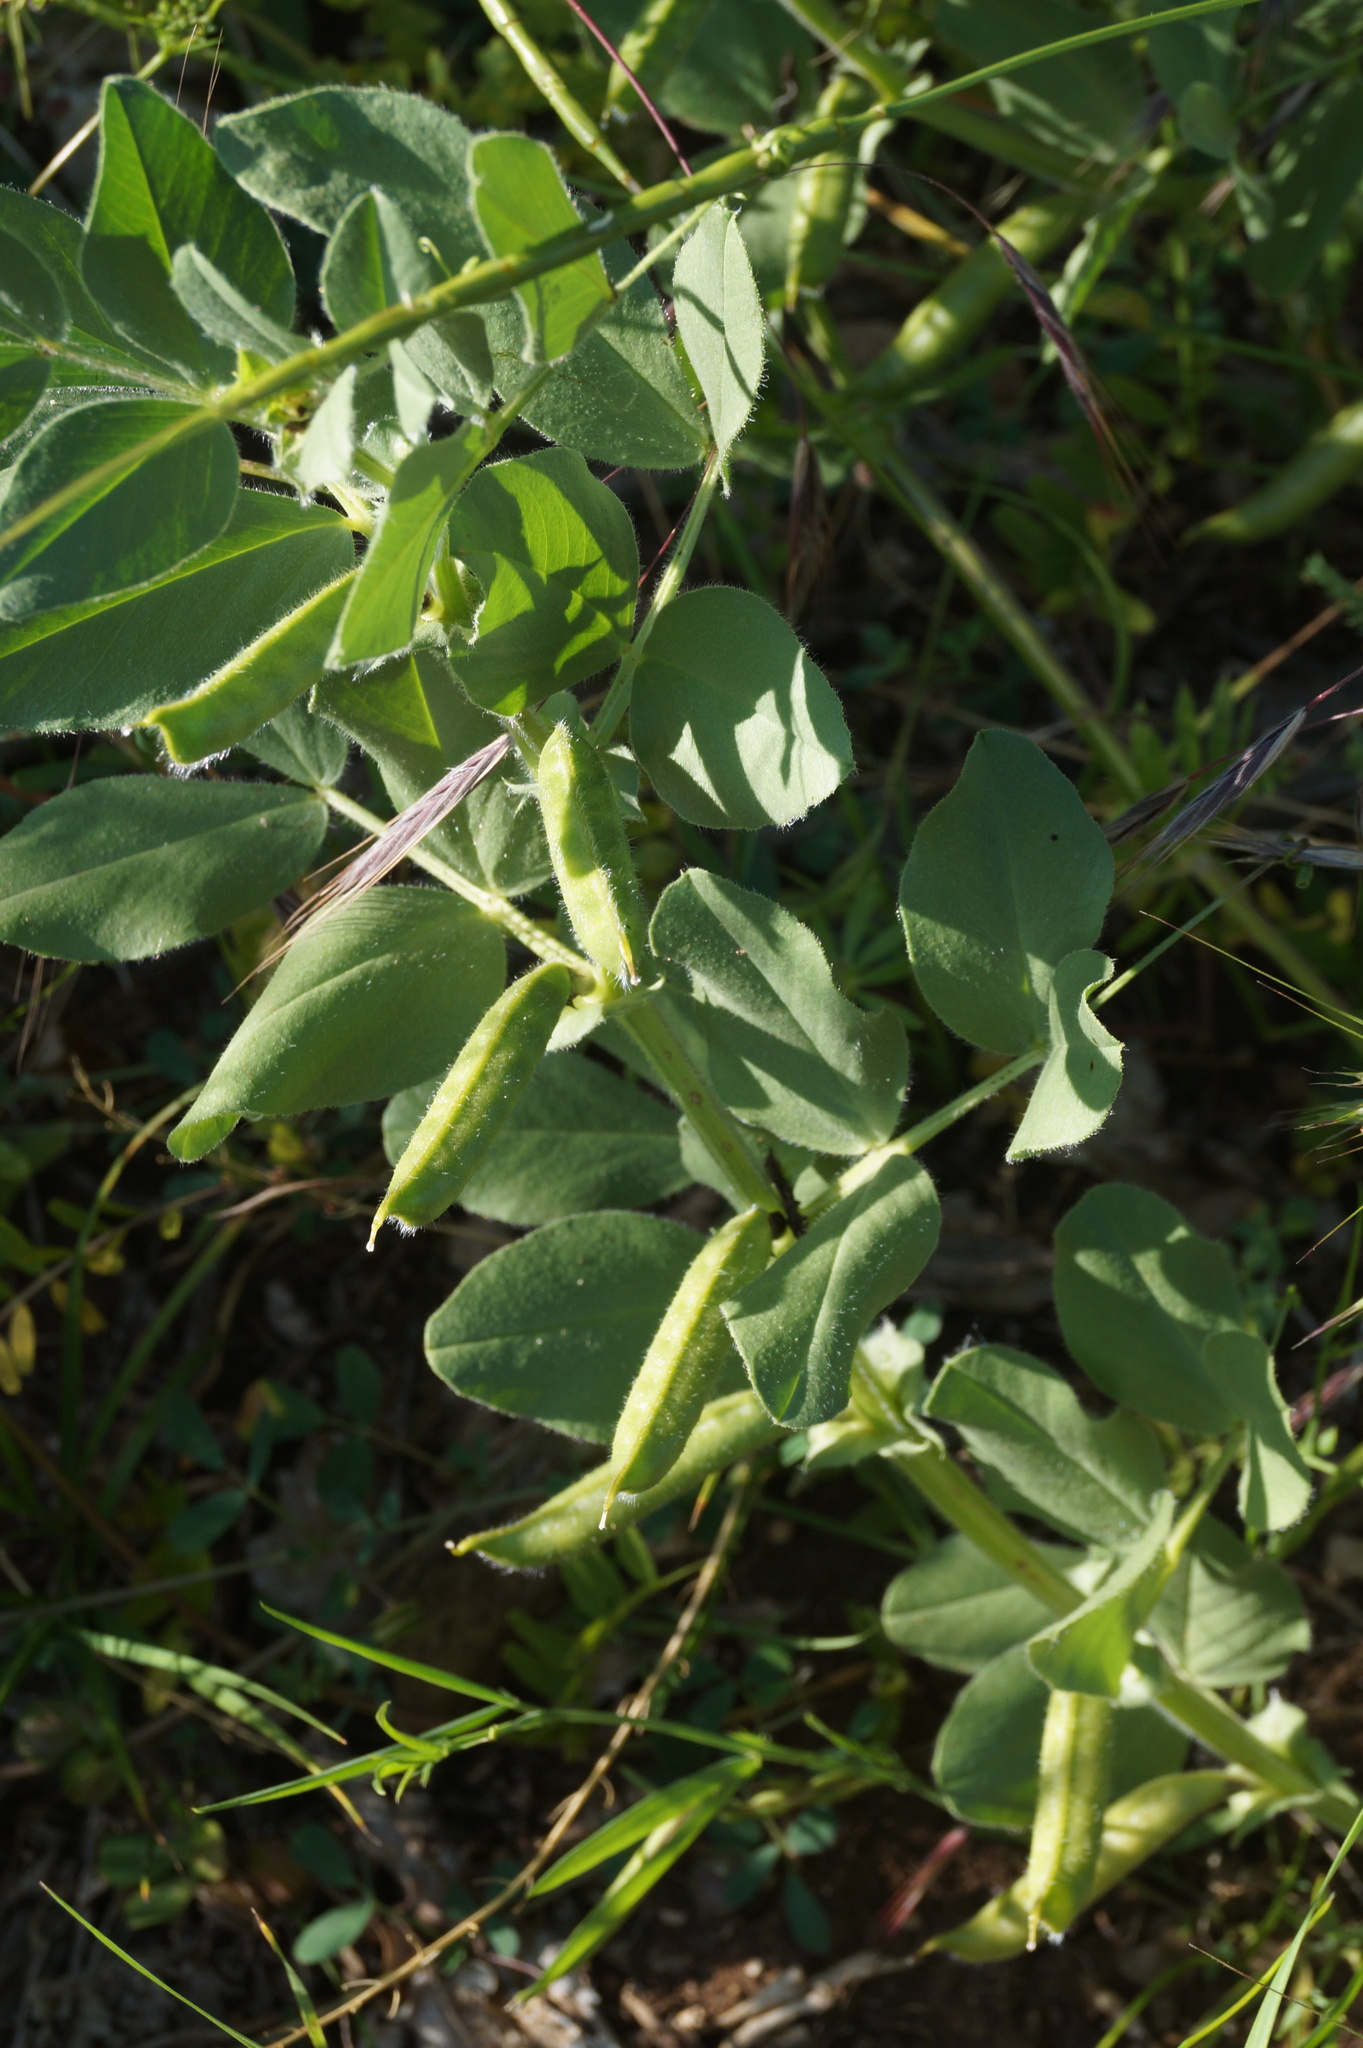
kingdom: Plantae
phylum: Tracheophyta
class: Magnoliopsida
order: Fabales
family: Fabaceae
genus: Vicia
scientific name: Vicia narbonensis
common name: Narbonne vetch
